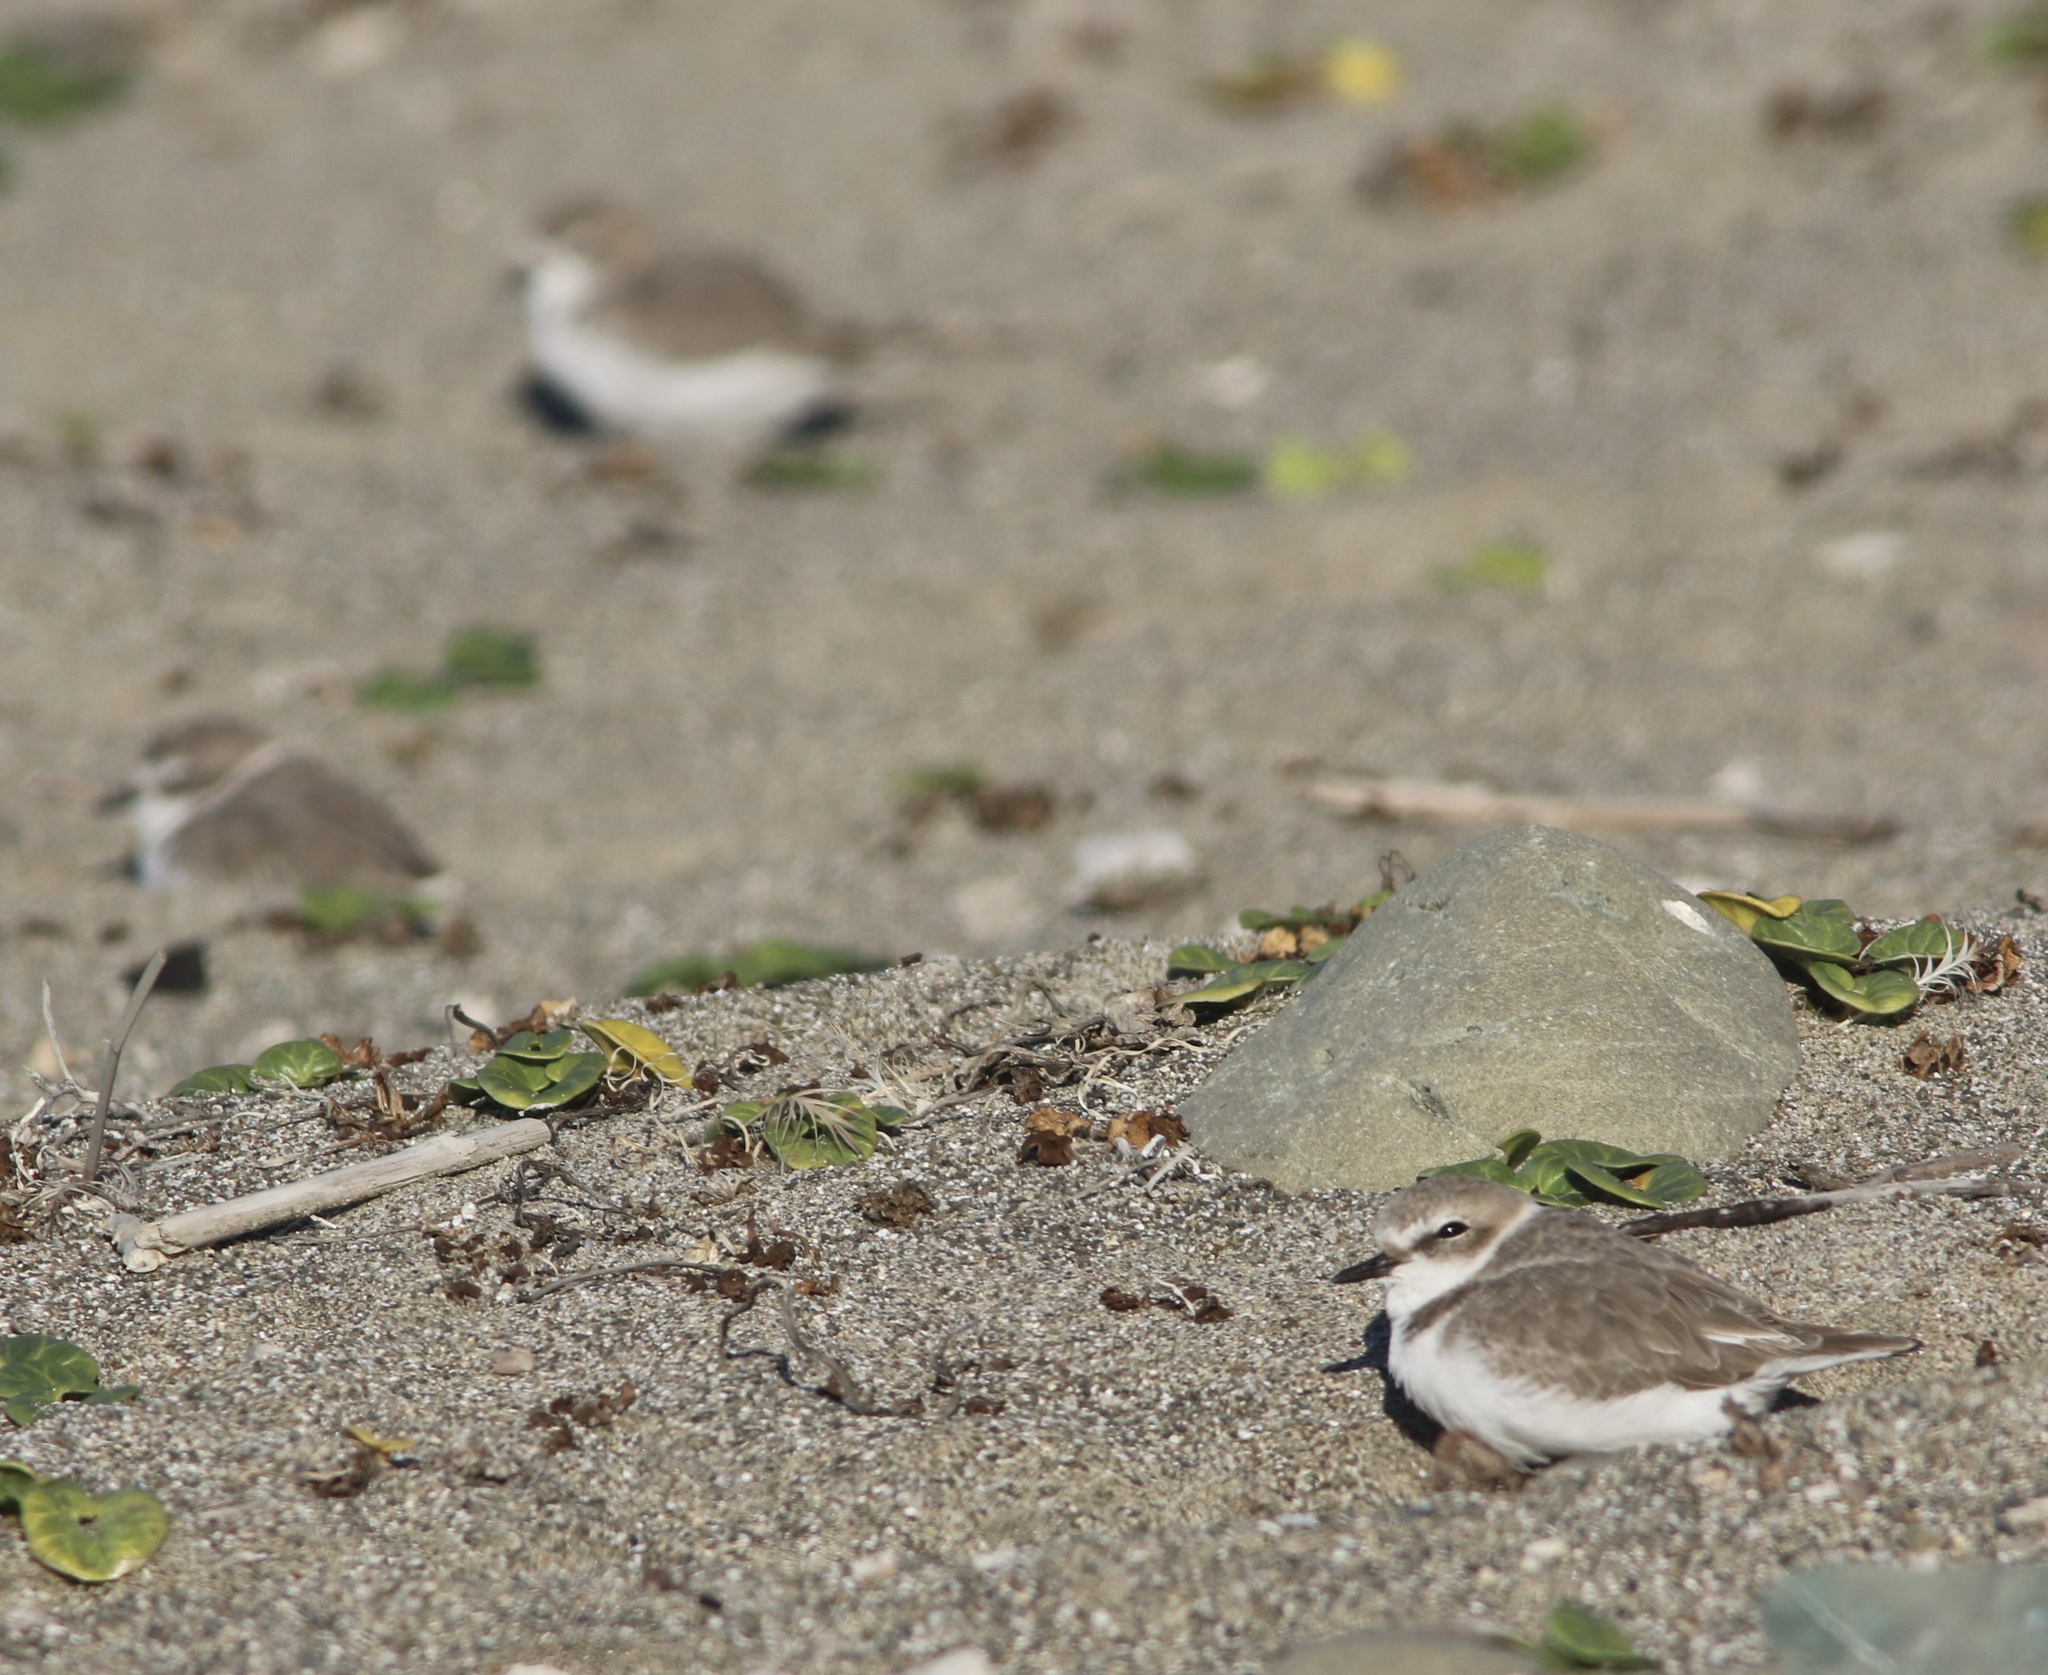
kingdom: Animalia
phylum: Chordata
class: Aves
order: Charadriiformes
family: Charadriidae
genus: Anarhynchus
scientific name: Anarhynchus
